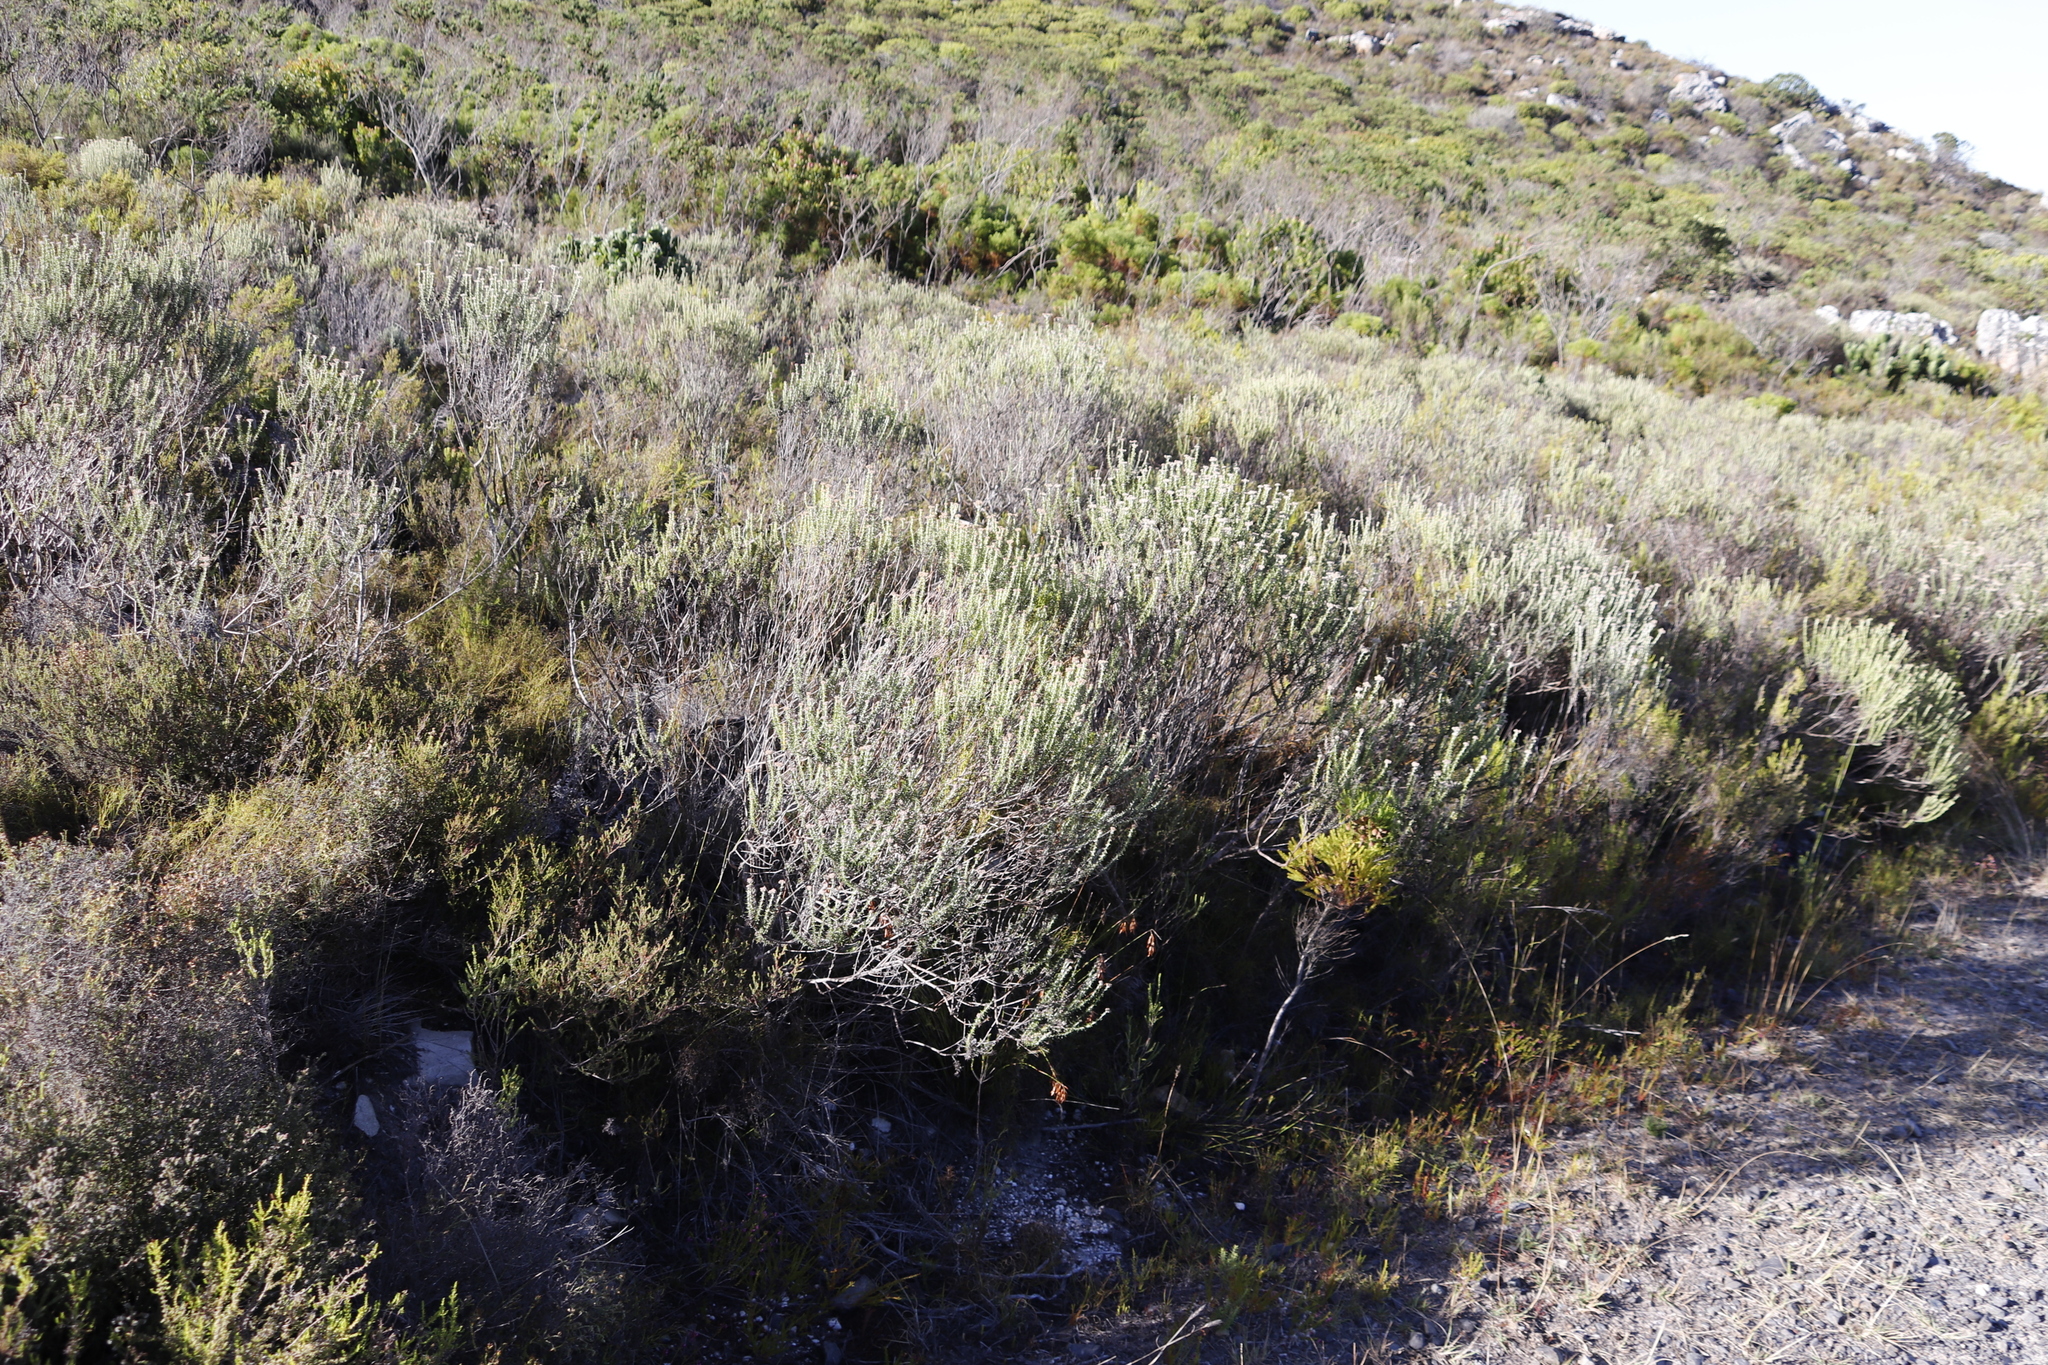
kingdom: Plantae
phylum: Tracheophyta
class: Magnoliopsida
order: Asterales
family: Asteraceae
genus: Metalasia
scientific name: Metalasia densa
